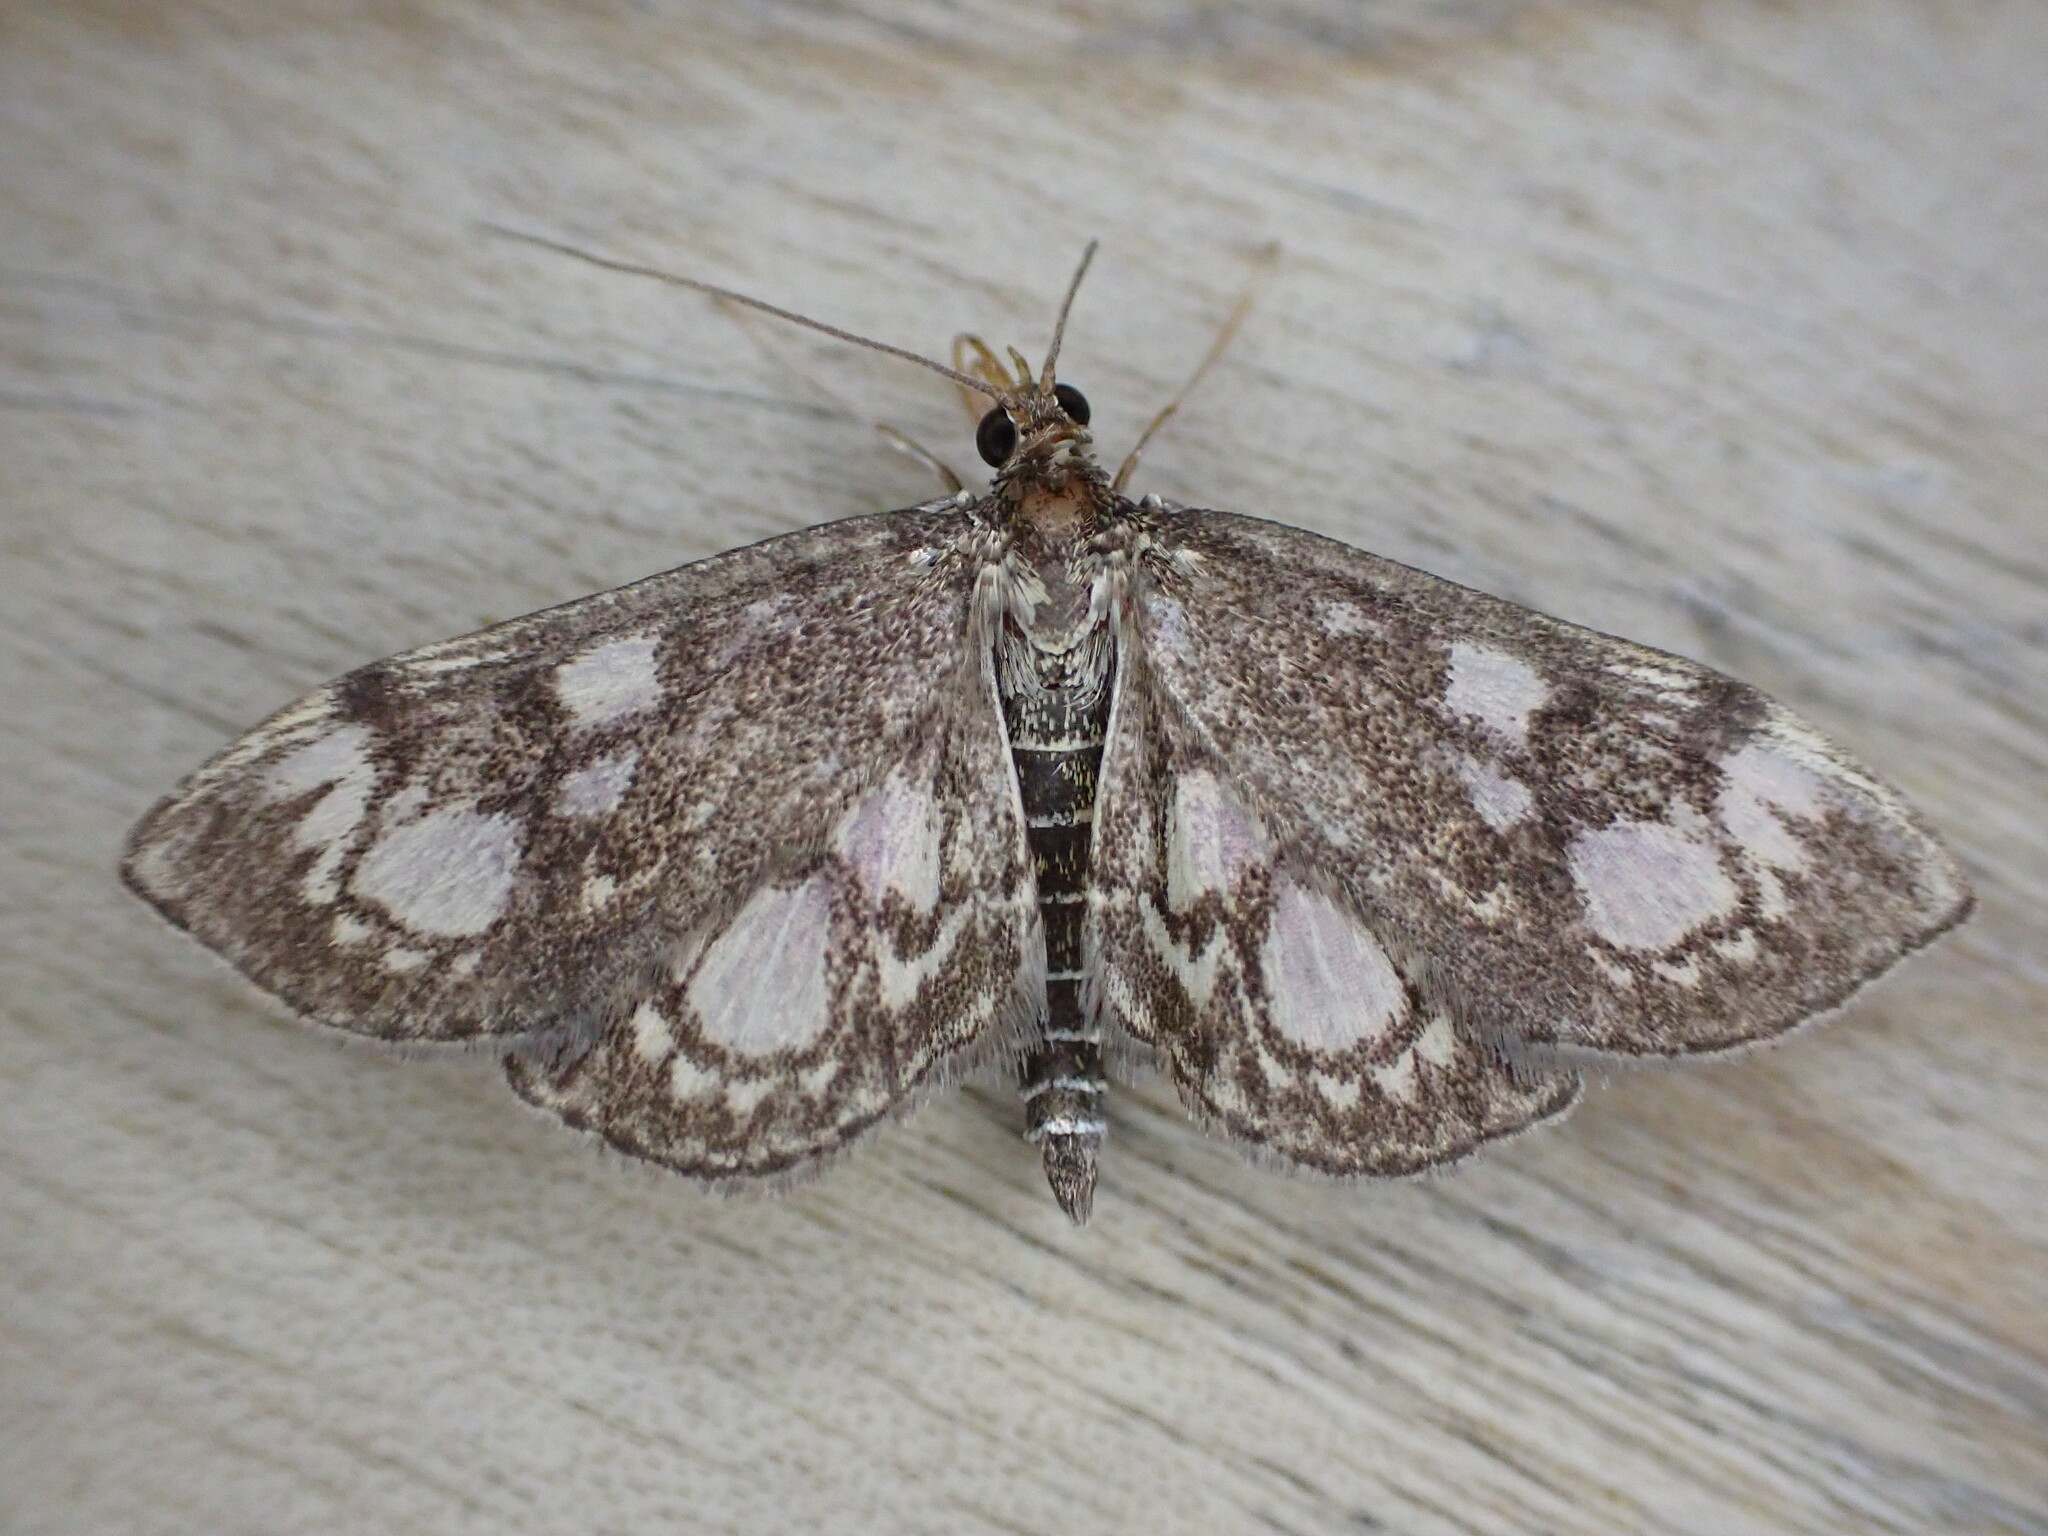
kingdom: Animalia
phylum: Arthropoda
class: Insecta
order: Lepidoptera
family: Crambidae
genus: Anania
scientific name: Anania coronata
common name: Elder pearl
